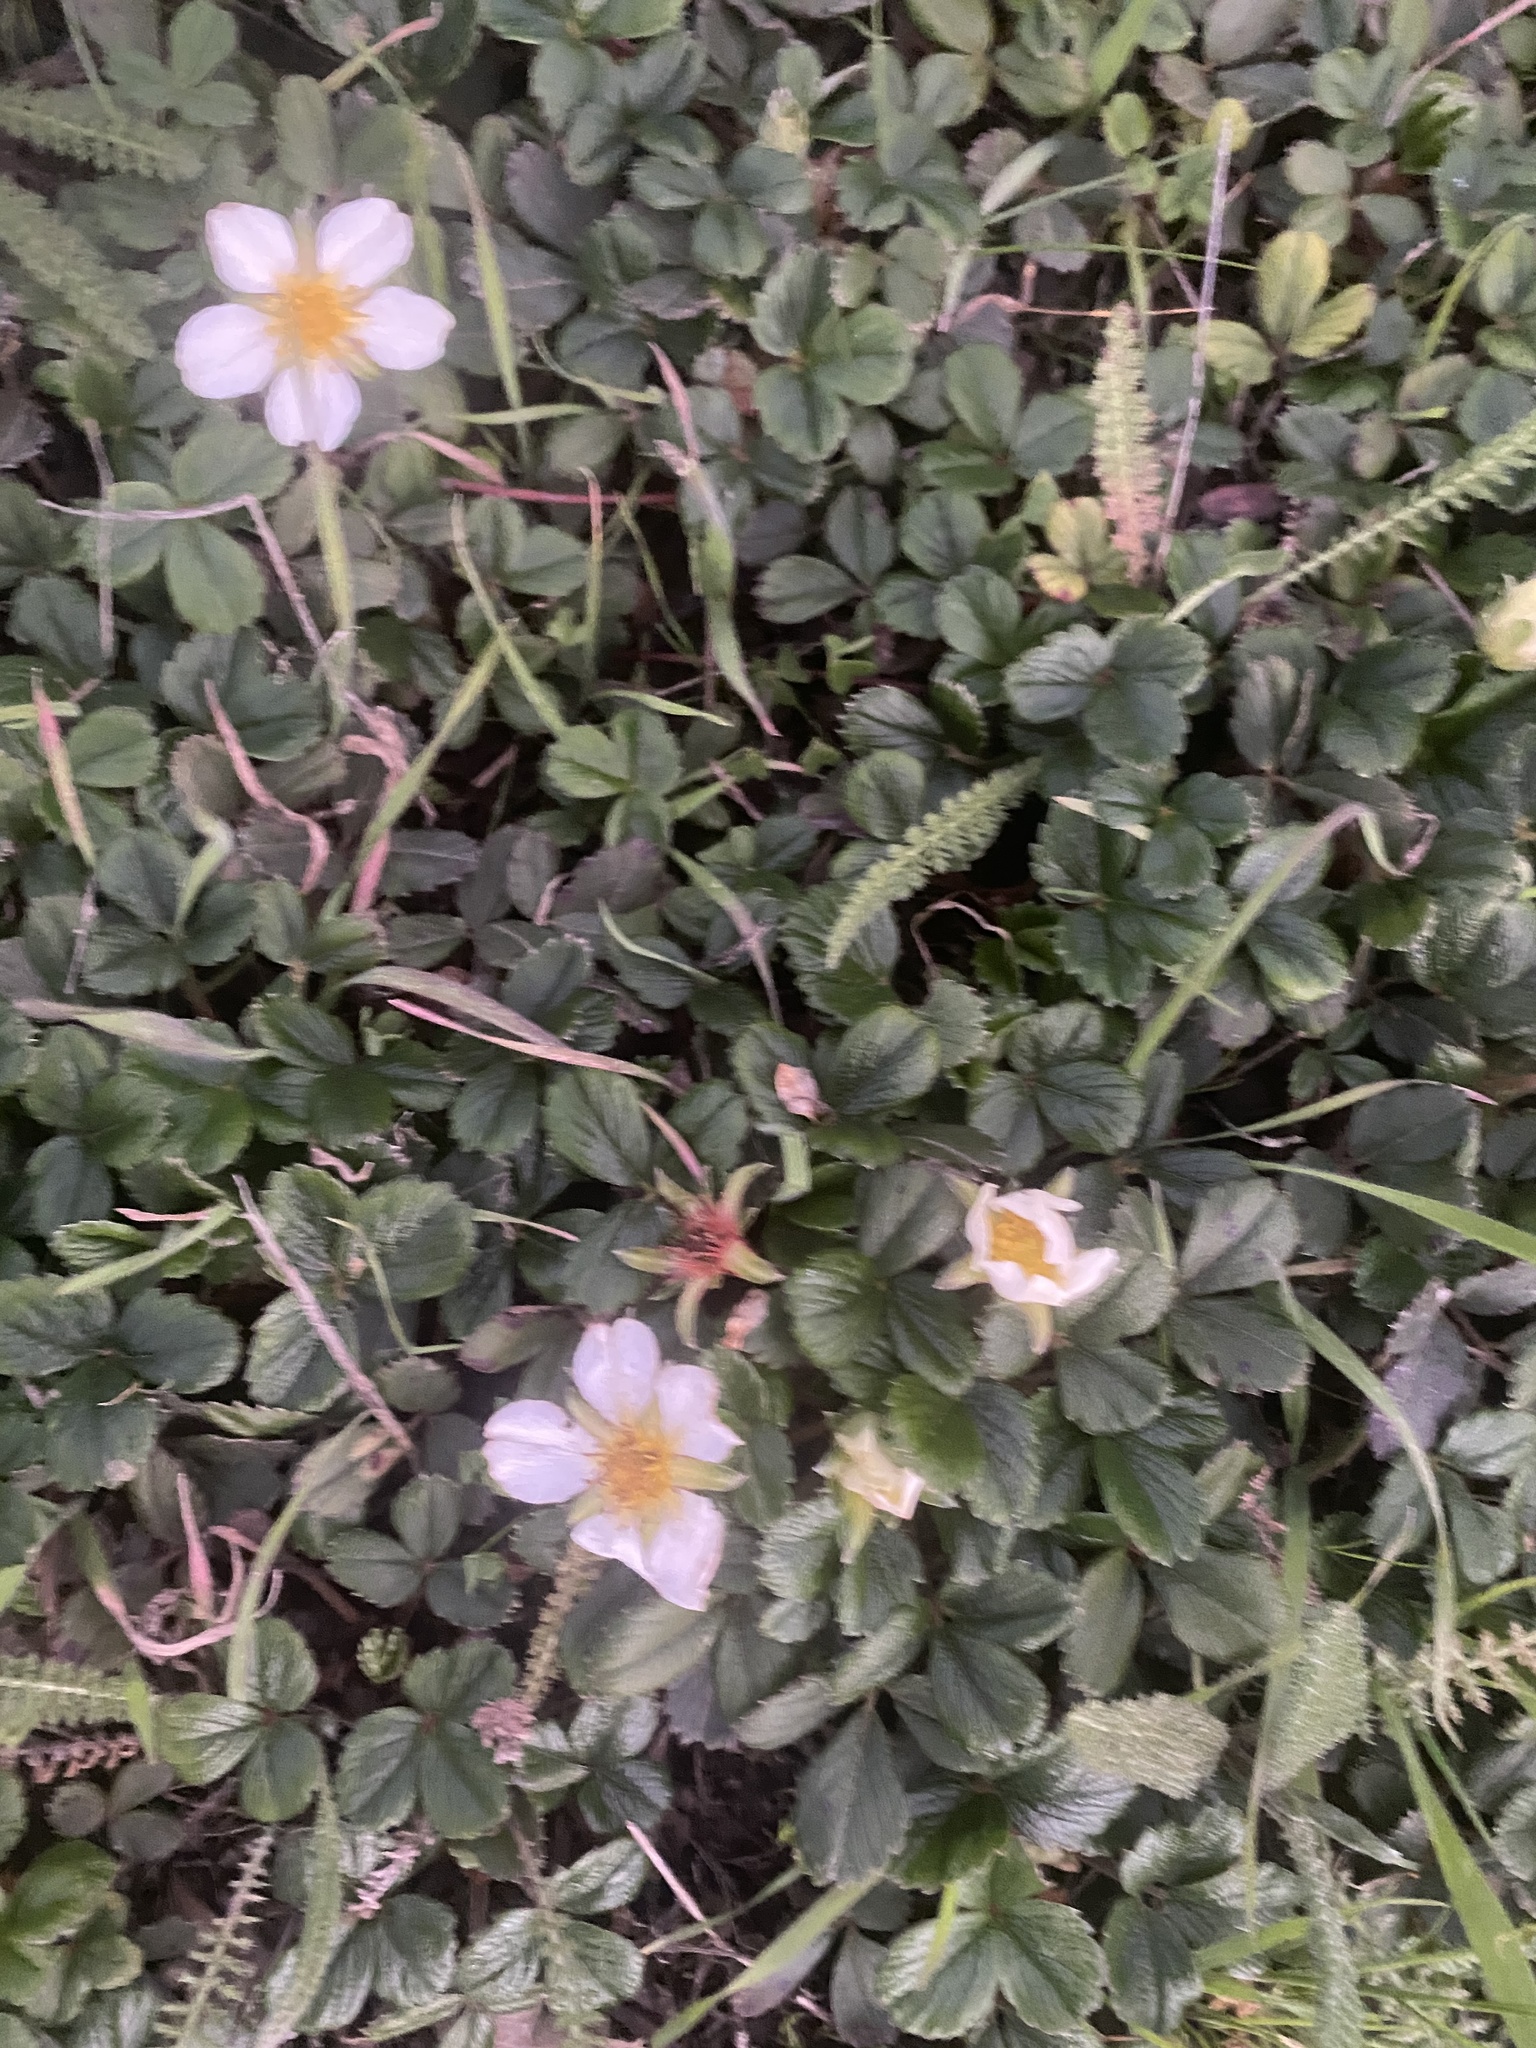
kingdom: Plantae
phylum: Tracheophyta
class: Magnoliopsida
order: Rosales
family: Rosaceae
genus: Fragaria
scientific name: Fragaria chiloensis
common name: Beach strawberry
